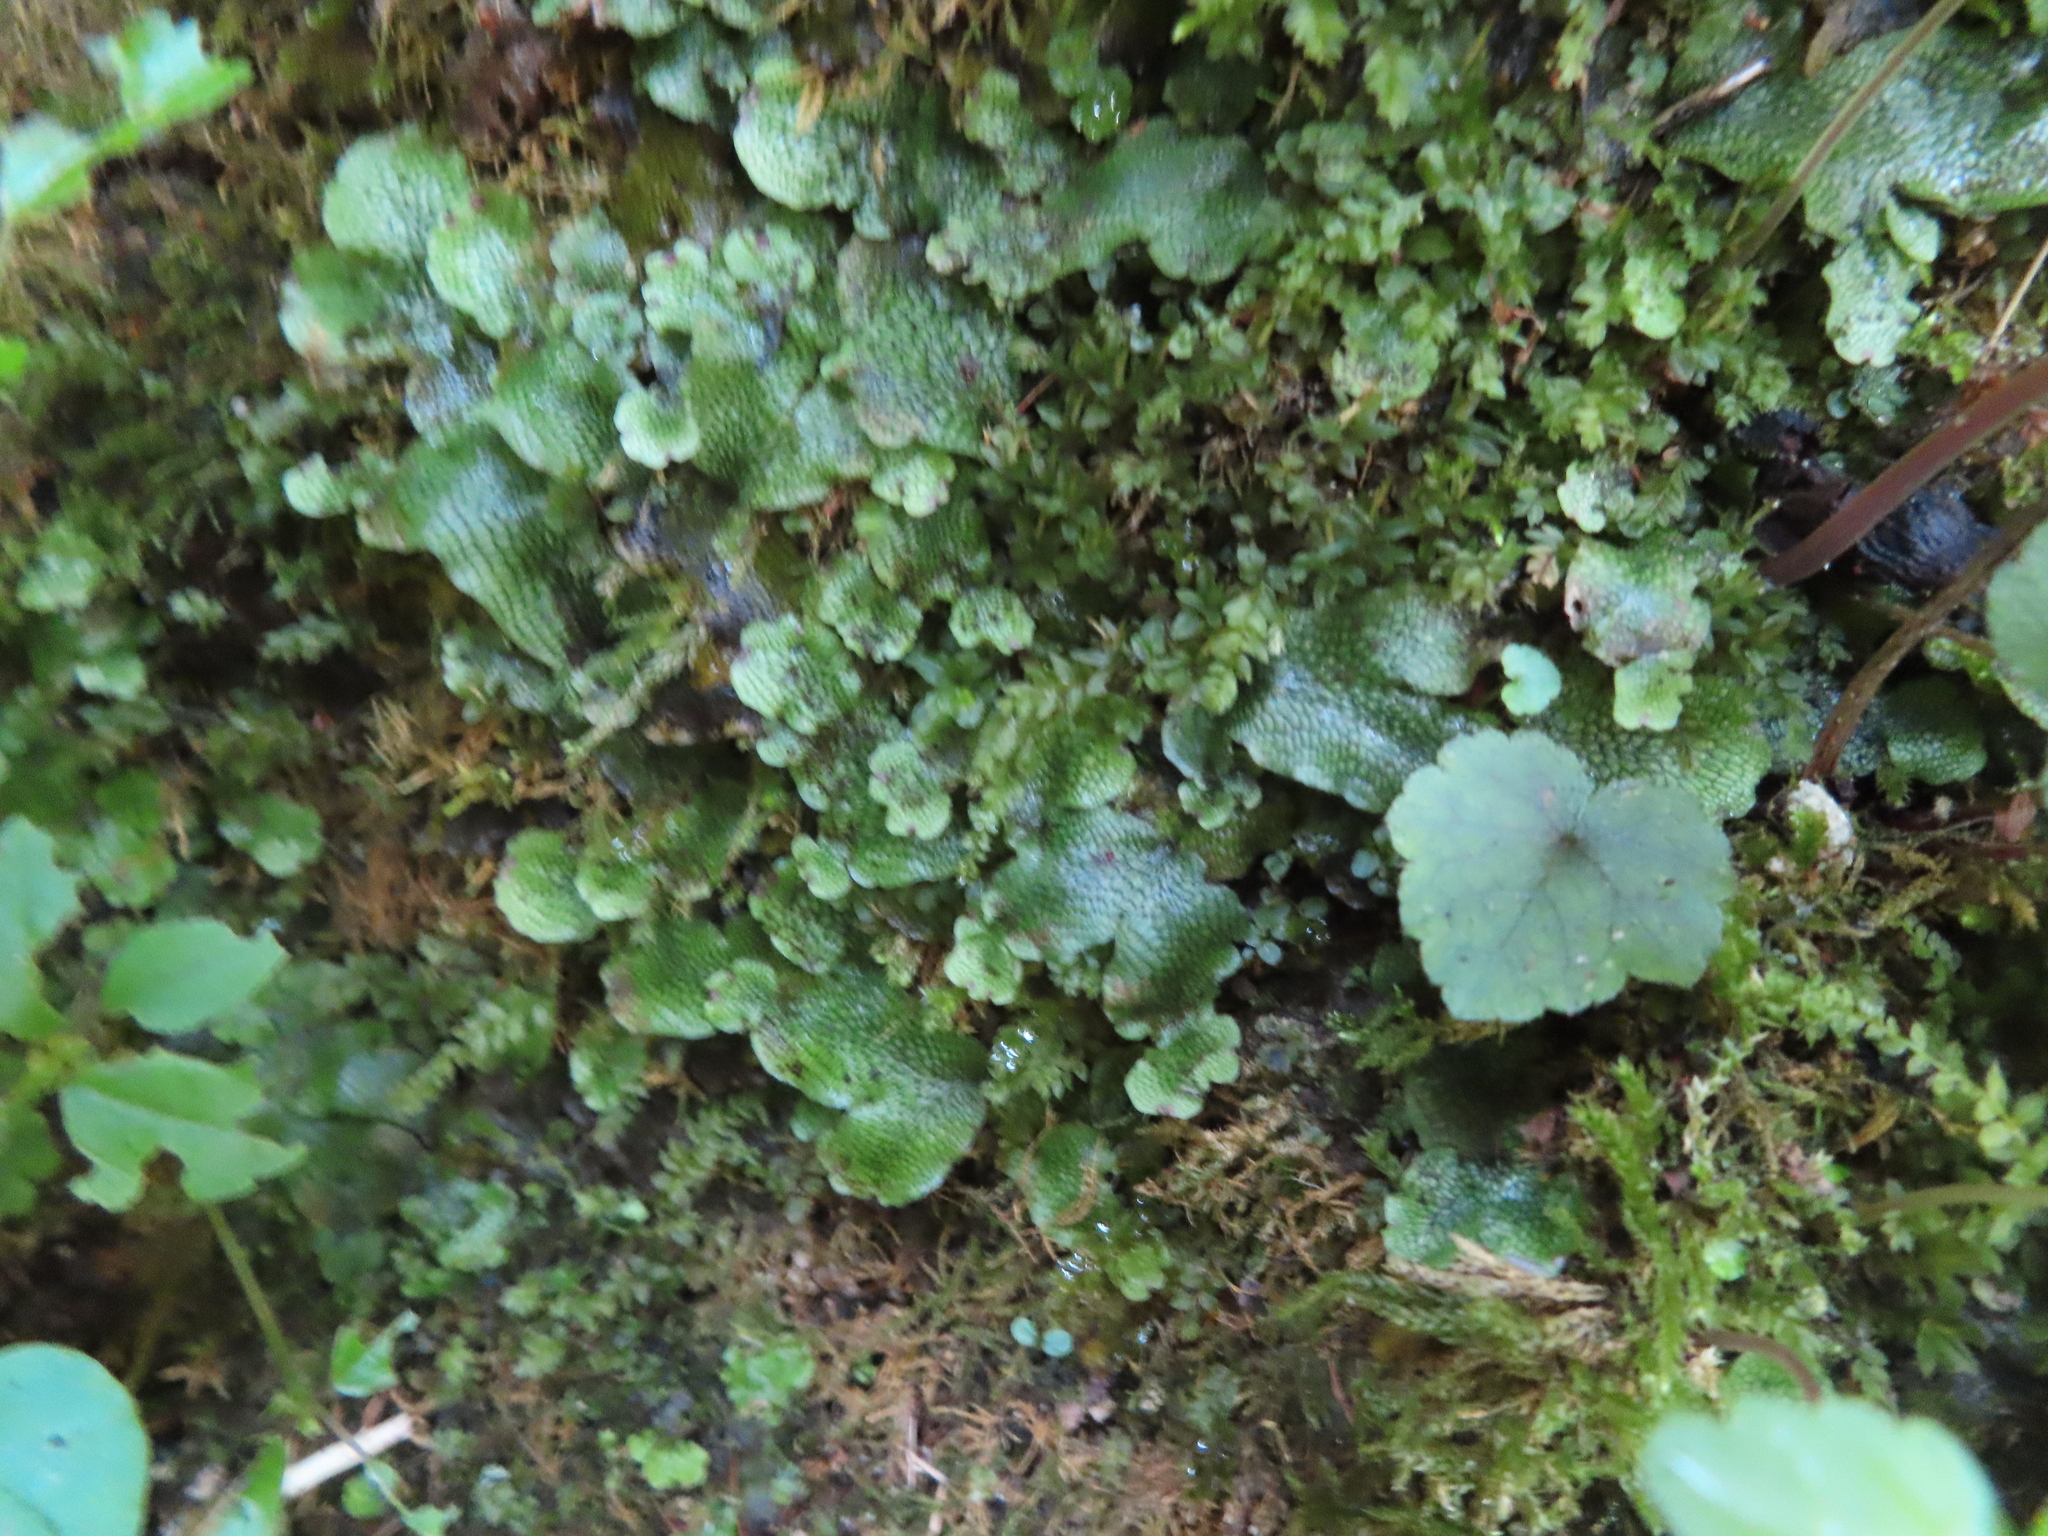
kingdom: Plantae
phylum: Marchantiophyta
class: Marchantiopsida
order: Marchantiales
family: Conocephalaceae
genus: Conocephalum
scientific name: Conocephalum salebrosum
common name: Cat-tongue liverwort
